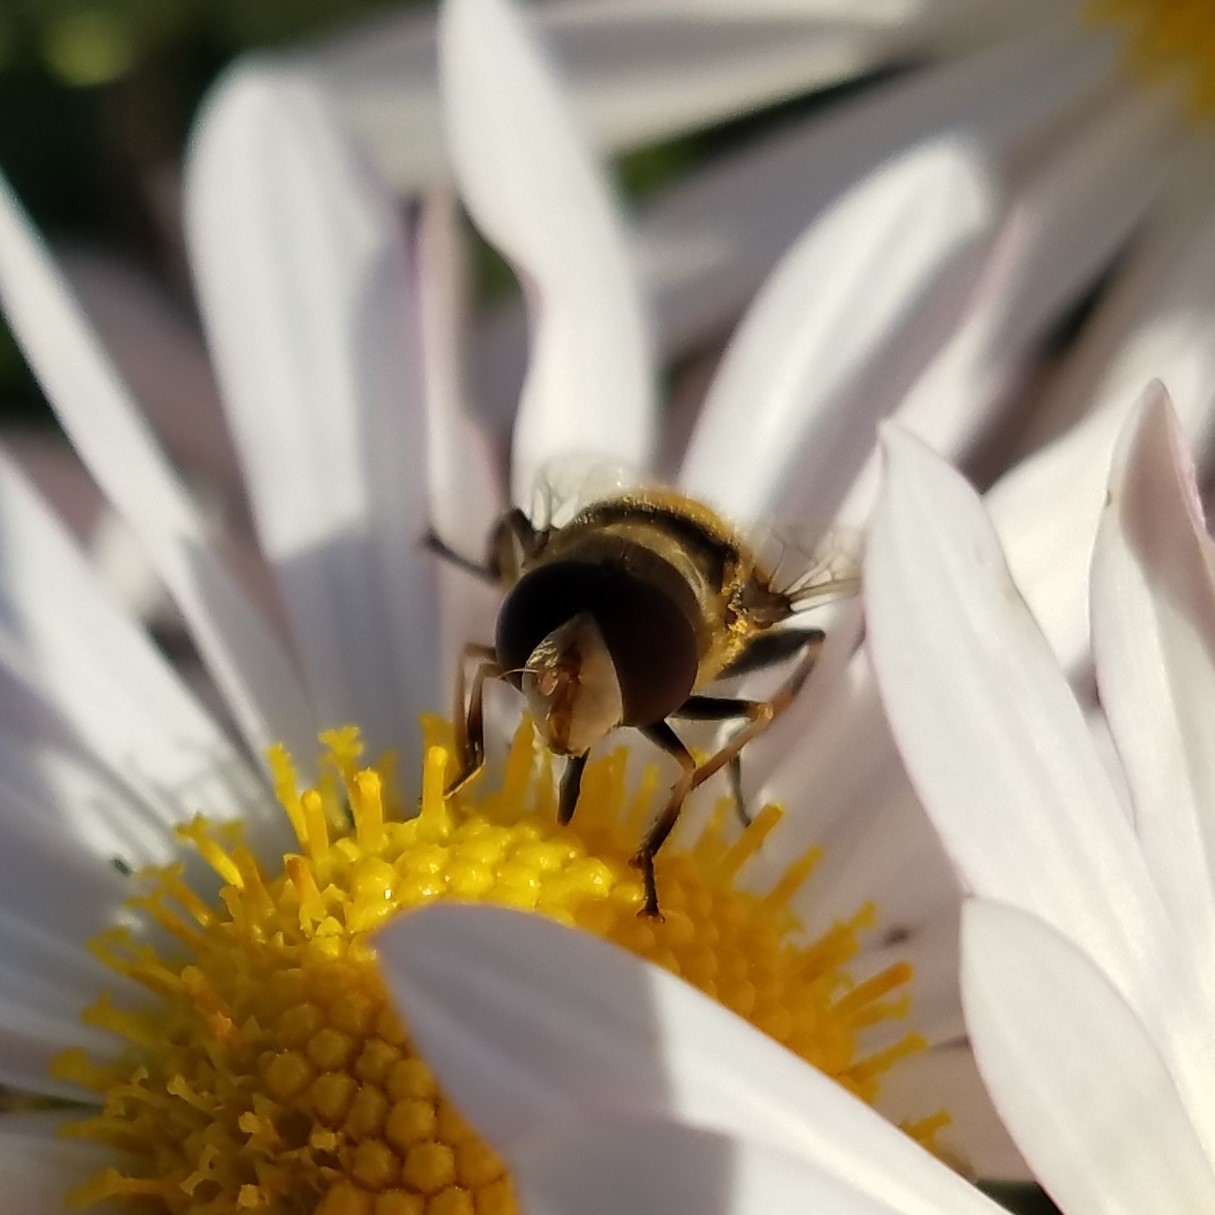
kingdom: Animalia
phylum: Arthropoda
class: Insecta
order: Diptera
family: Syrphidae
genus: Palpada
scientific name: Palpada pusilla
